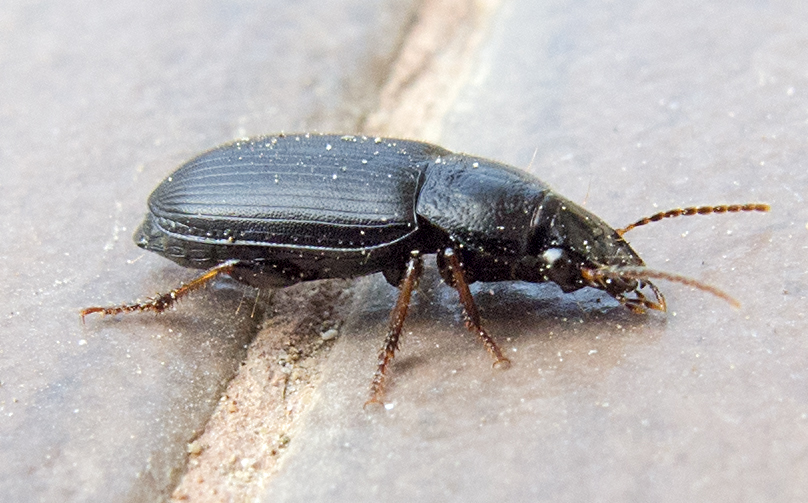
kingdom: Animalia
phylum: Arthropoda
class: Insecta
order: Coleoptera
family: Carabidae
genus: Harpalus
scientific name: Harpalus signaticornis
